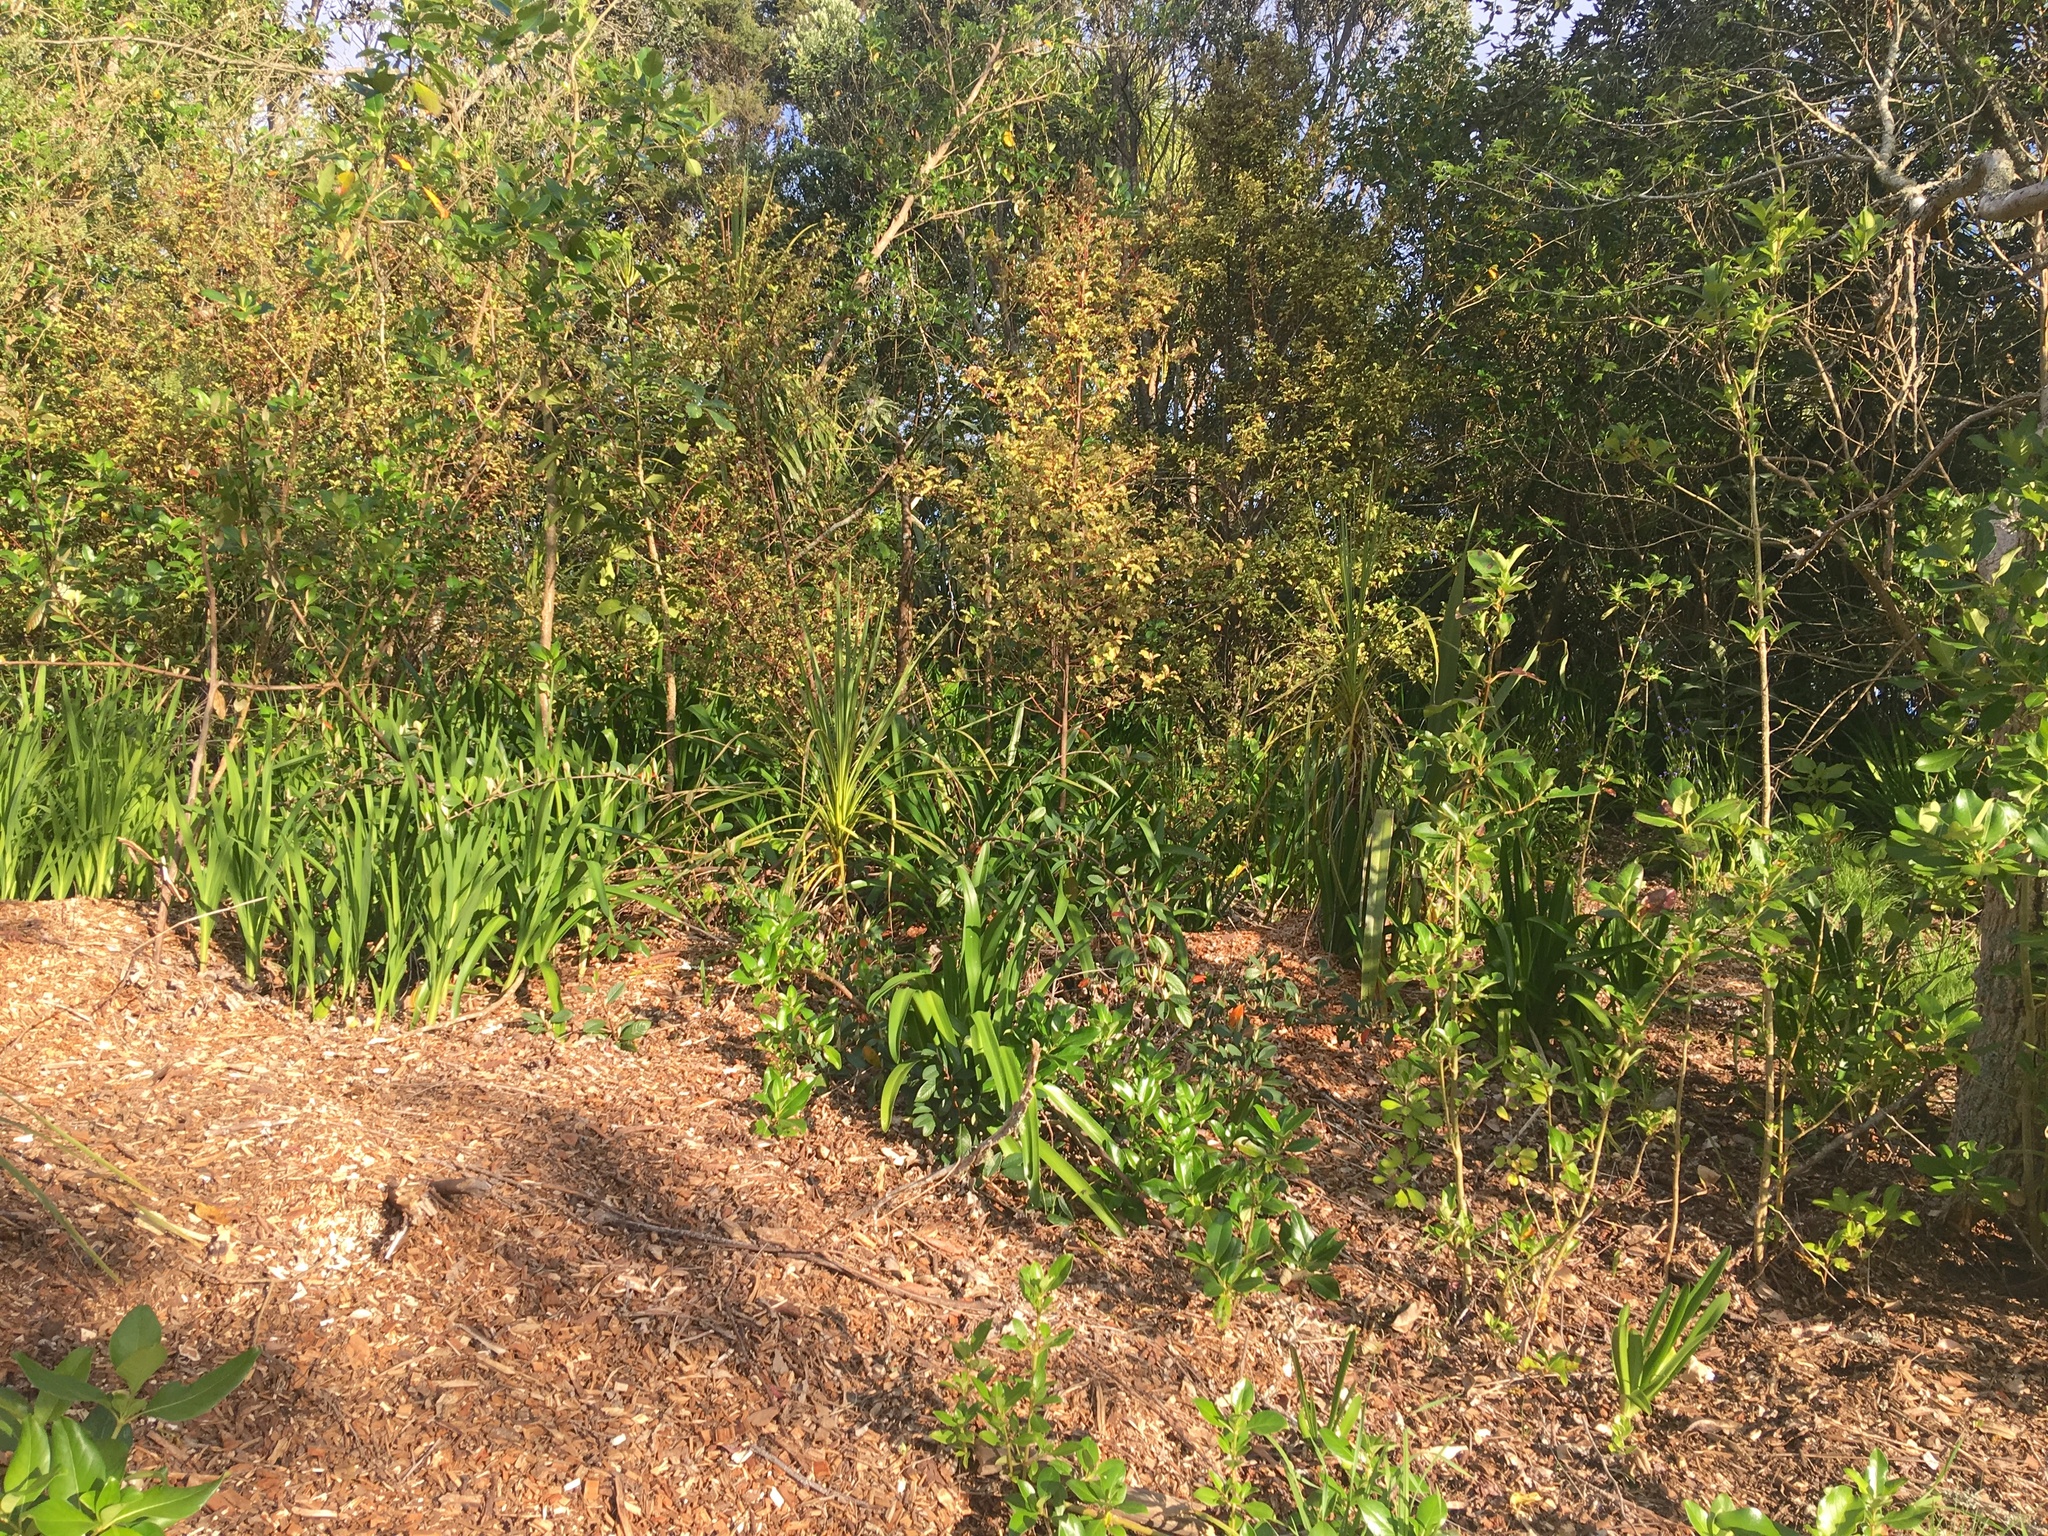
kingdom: Plantae
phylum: Tracheophyta
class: Liliopsida
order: Asparagales
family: Iridaceae
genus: Crocosmia
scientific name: Crocosmia crocosmiiflora
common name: Montbretia
